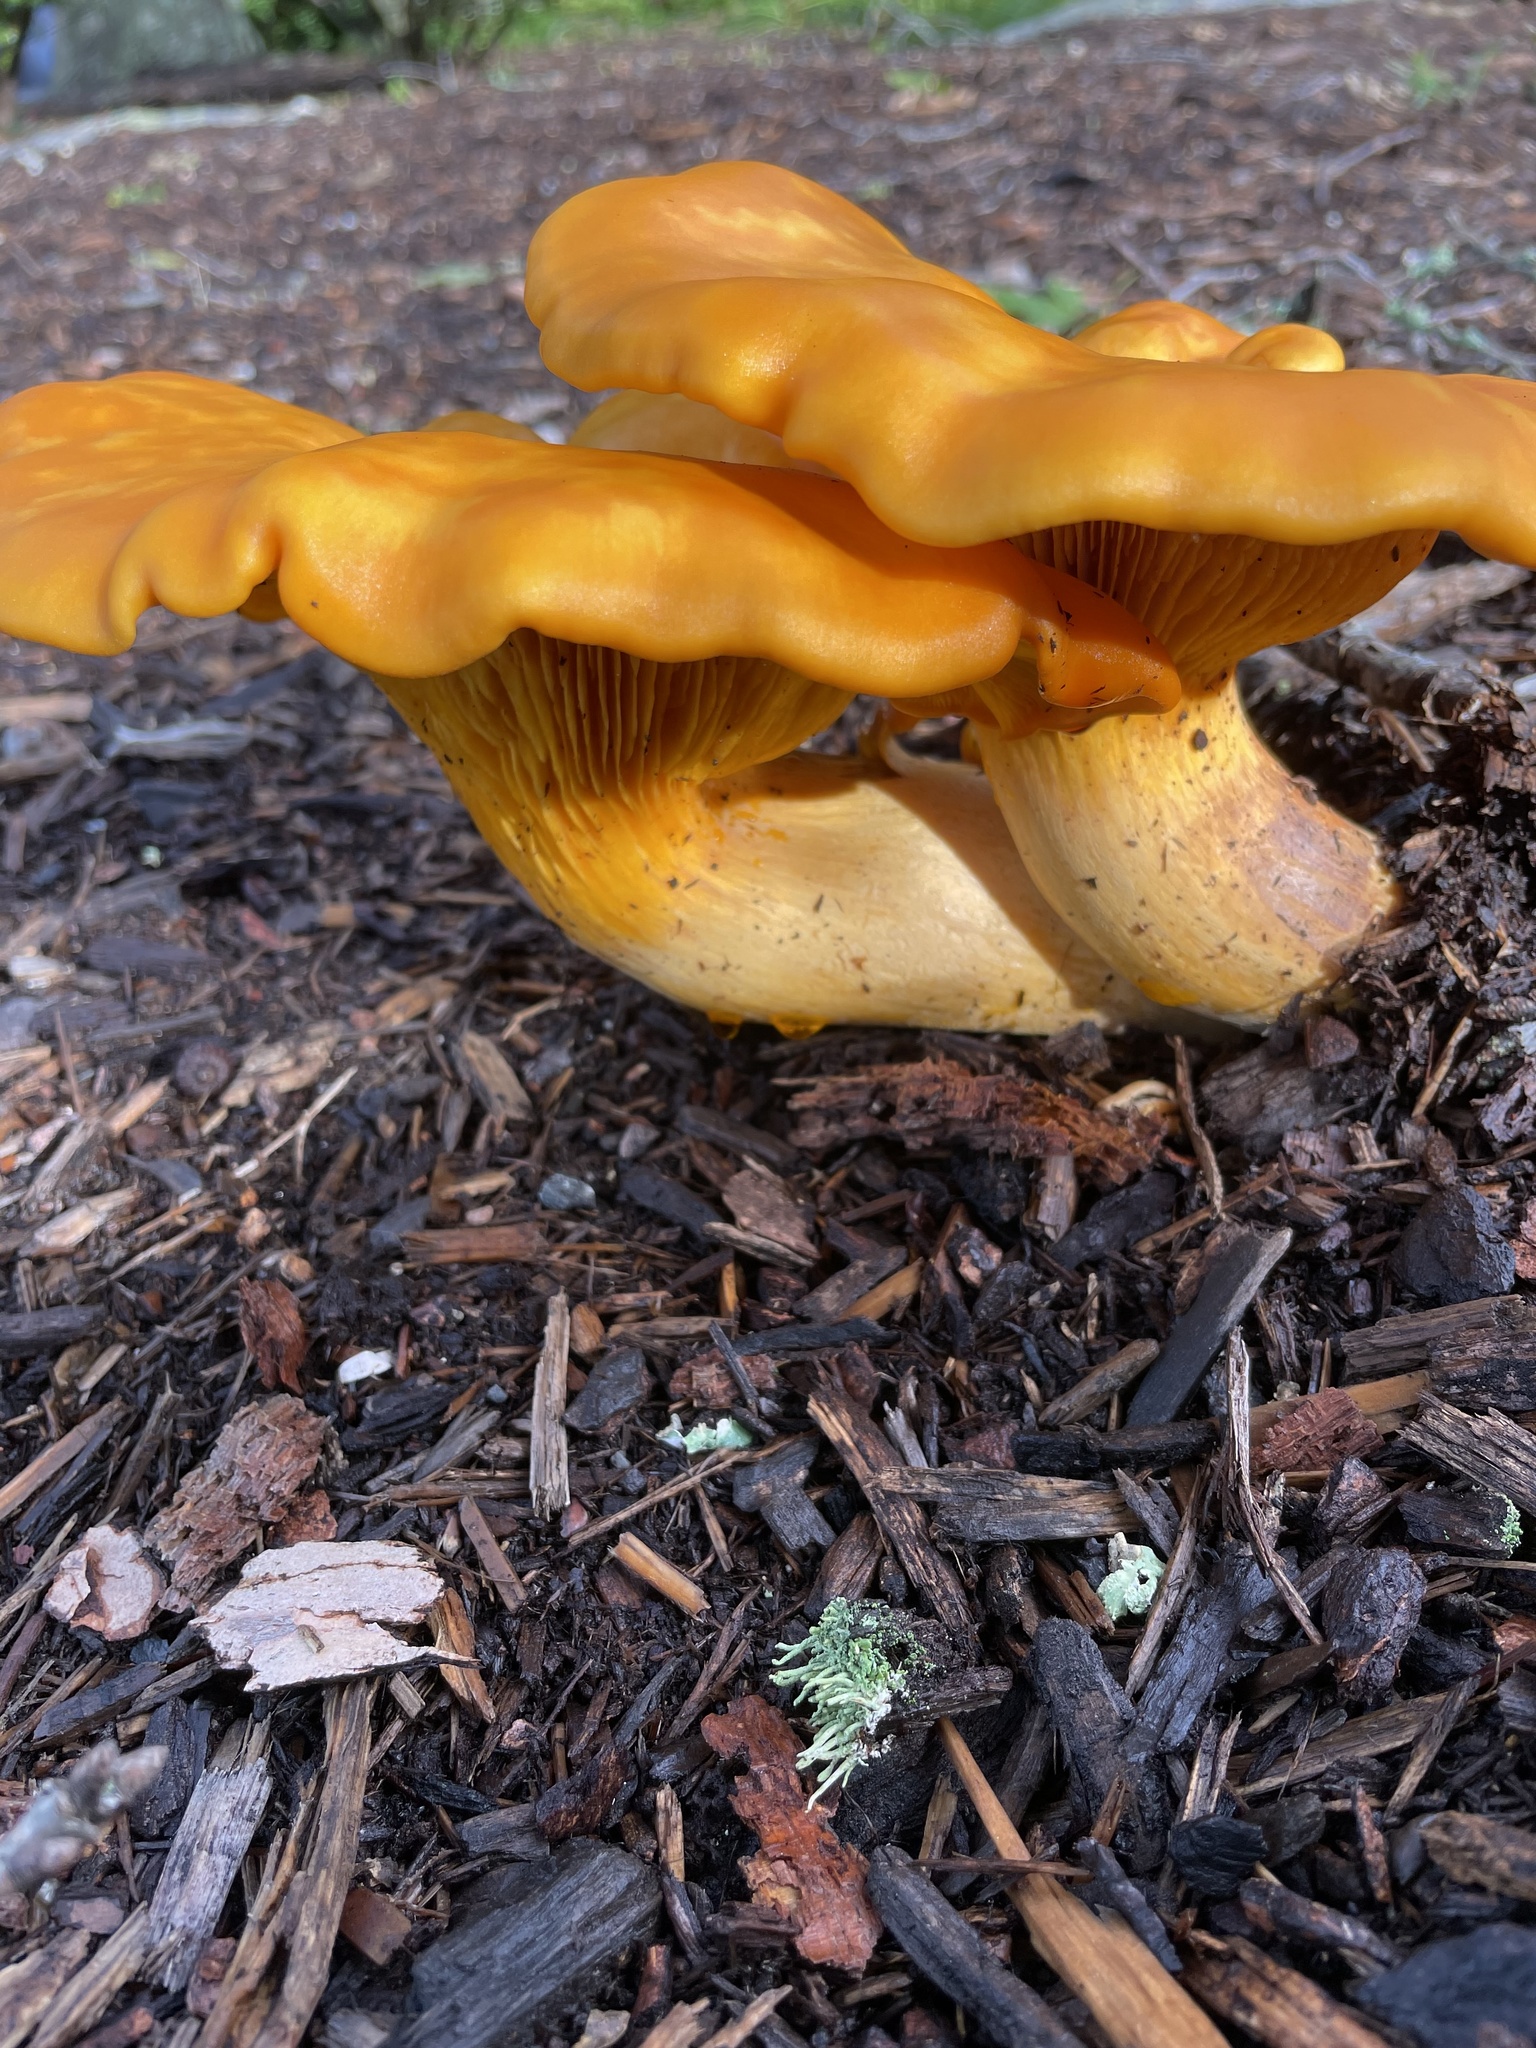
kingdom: Fungi
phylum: Basidiomycota
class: Agaricomycetes
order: Agaricales
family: Omphalotaceae
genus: Omphalotus
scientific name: Omphalotus illudens
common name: Jack o lantern
